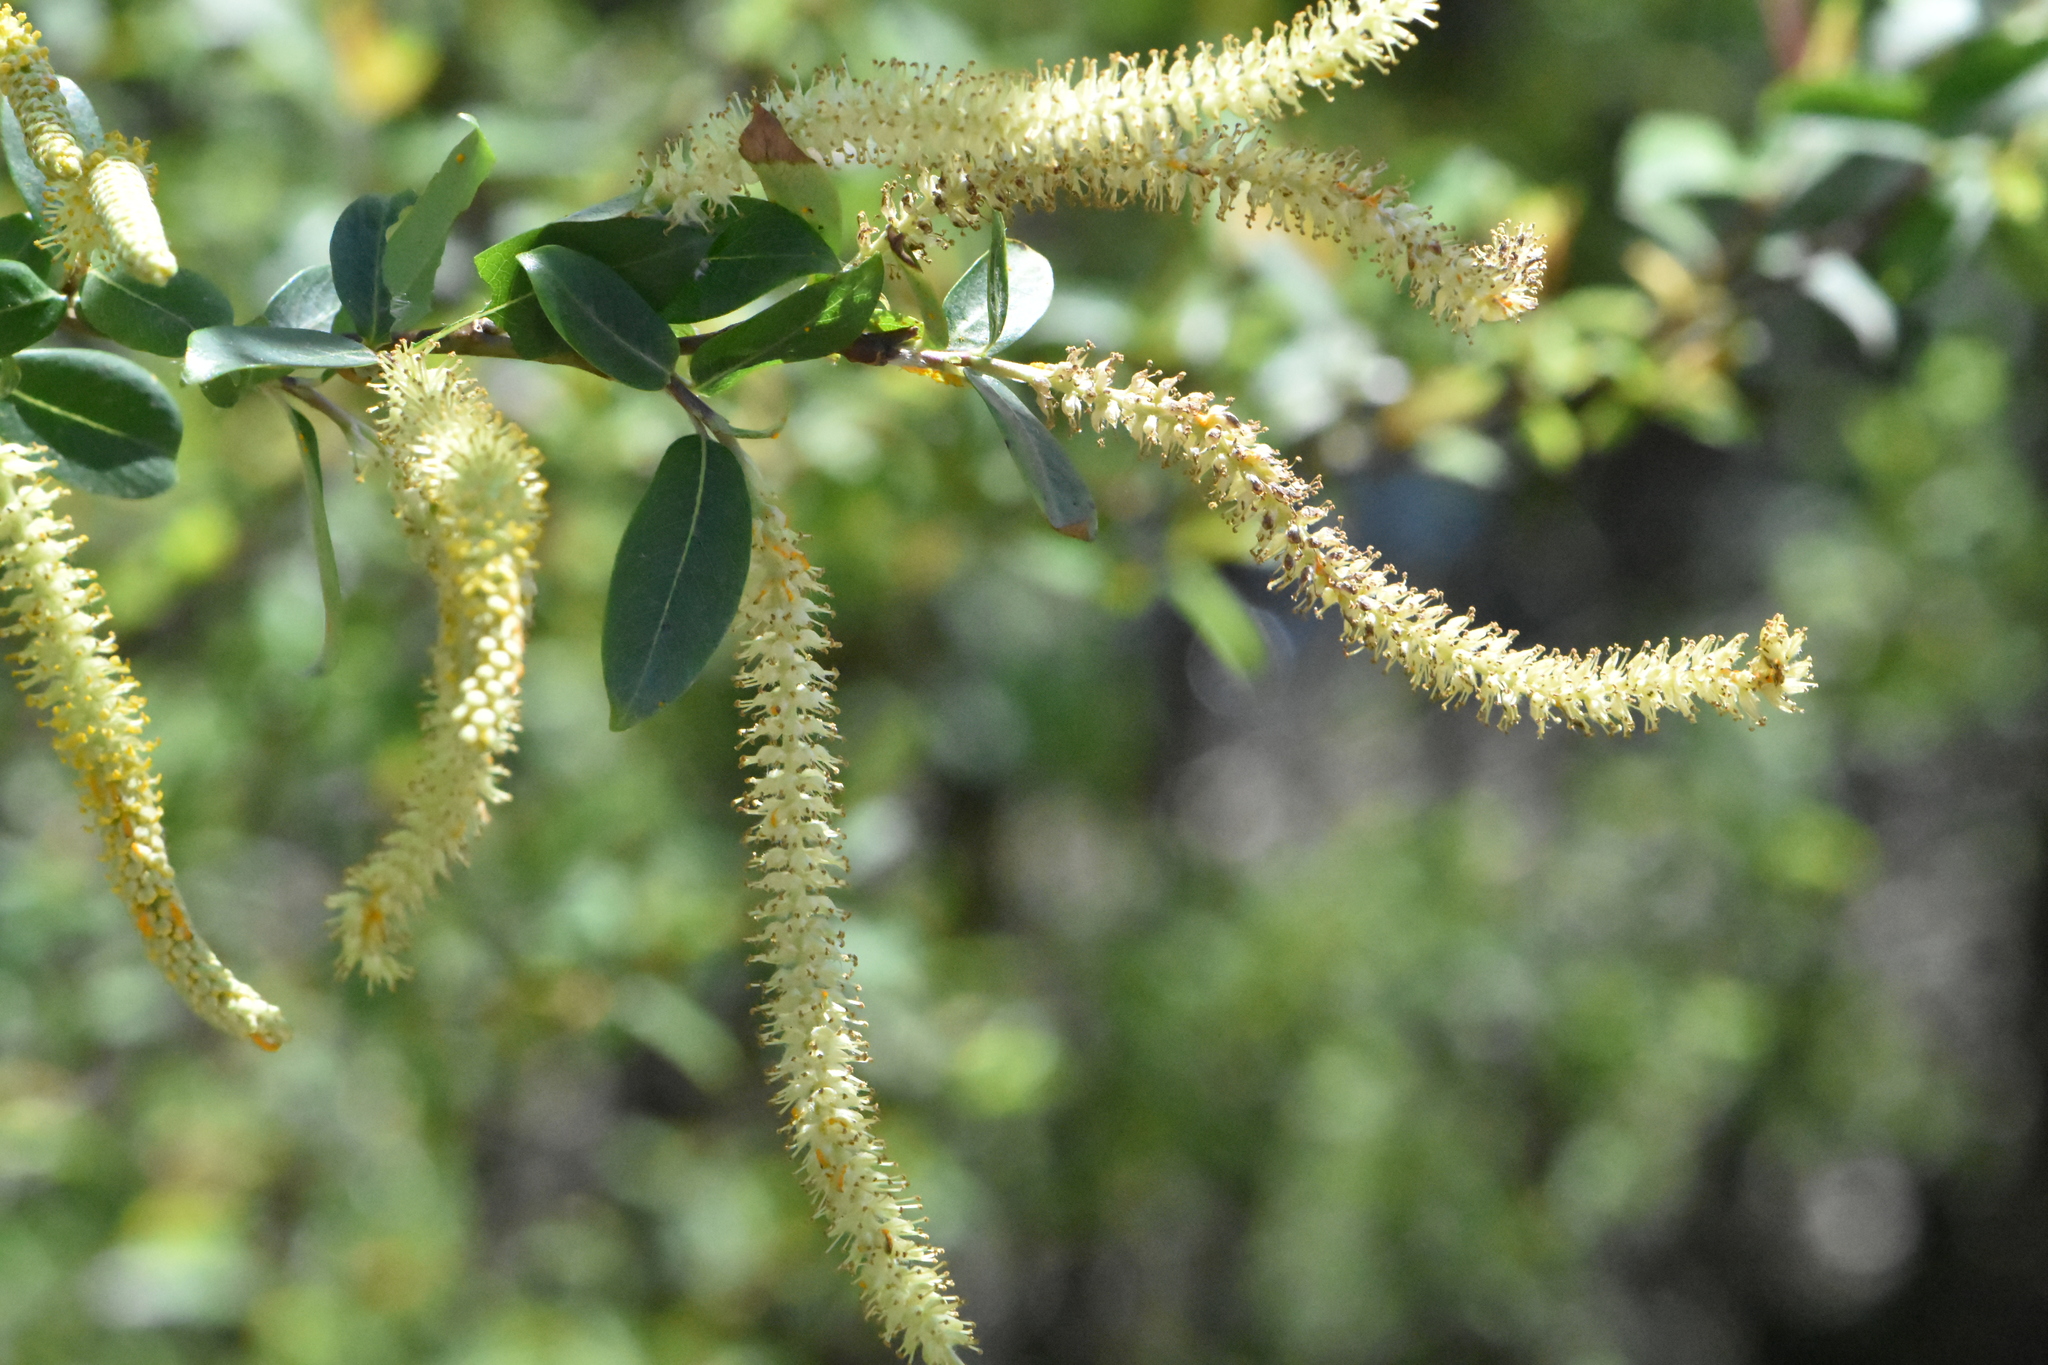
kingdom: Plantae
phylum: Tracheophyta
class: Magnoliopsida
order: Malpighiales
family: Salicaceae
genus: Salix
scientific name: Salix triandra
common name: Almond willow
